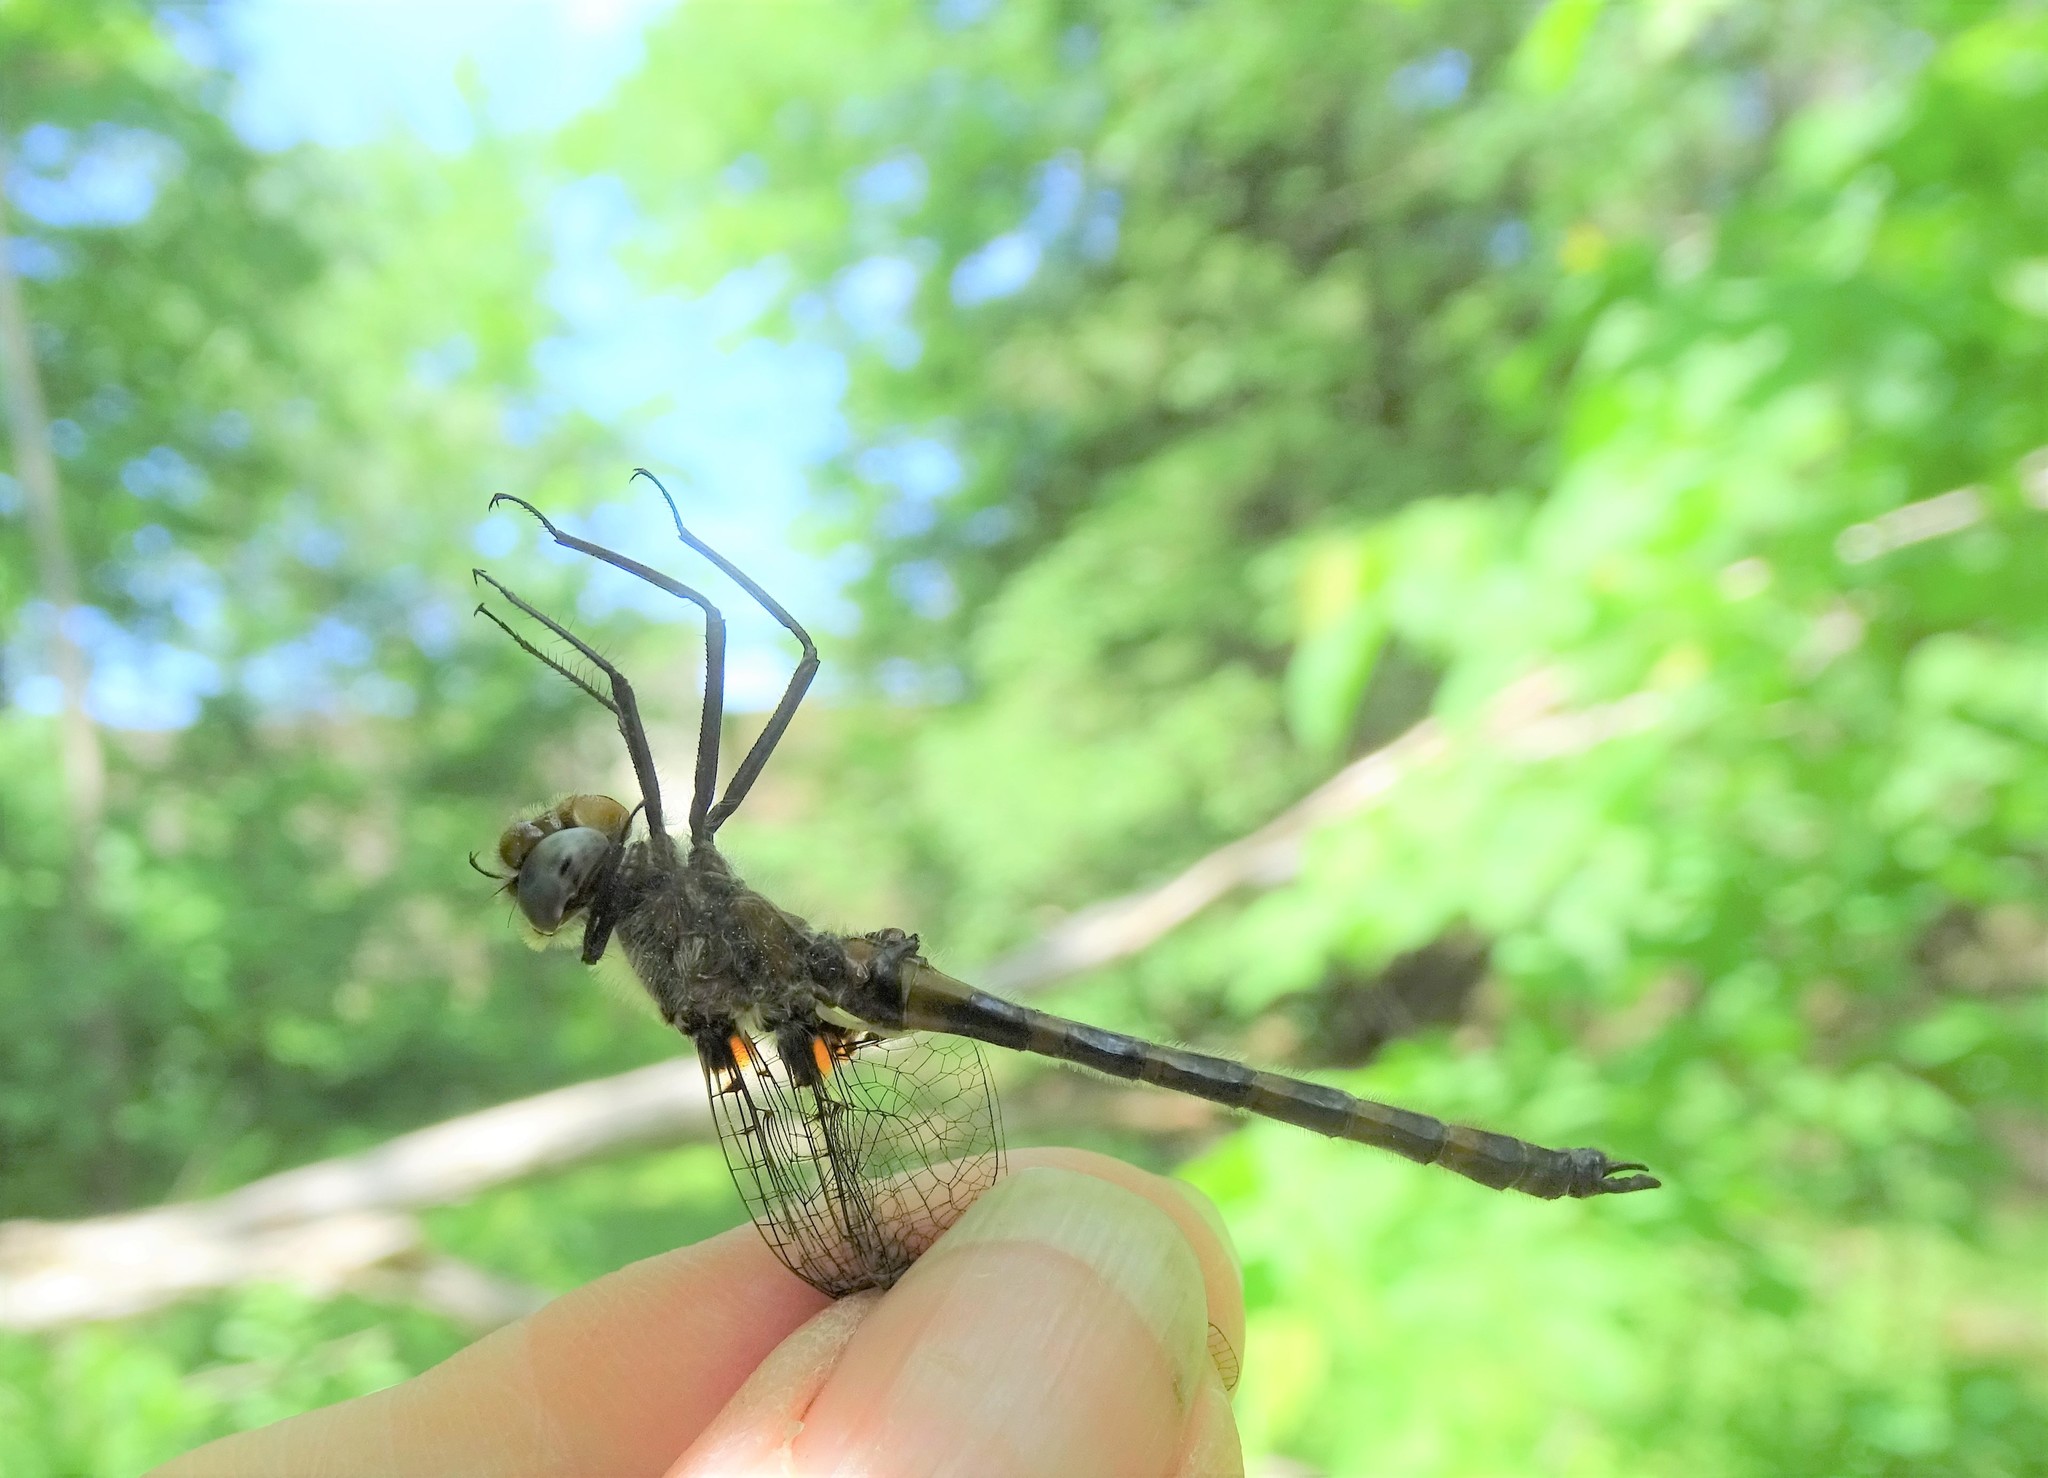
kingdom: Animalia
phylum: Arthropoda
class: Insecta
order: Odonata
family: Corduliidae
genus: Helocordulia
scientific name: Helocordulia uhleri
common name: Uhler's sundragon
